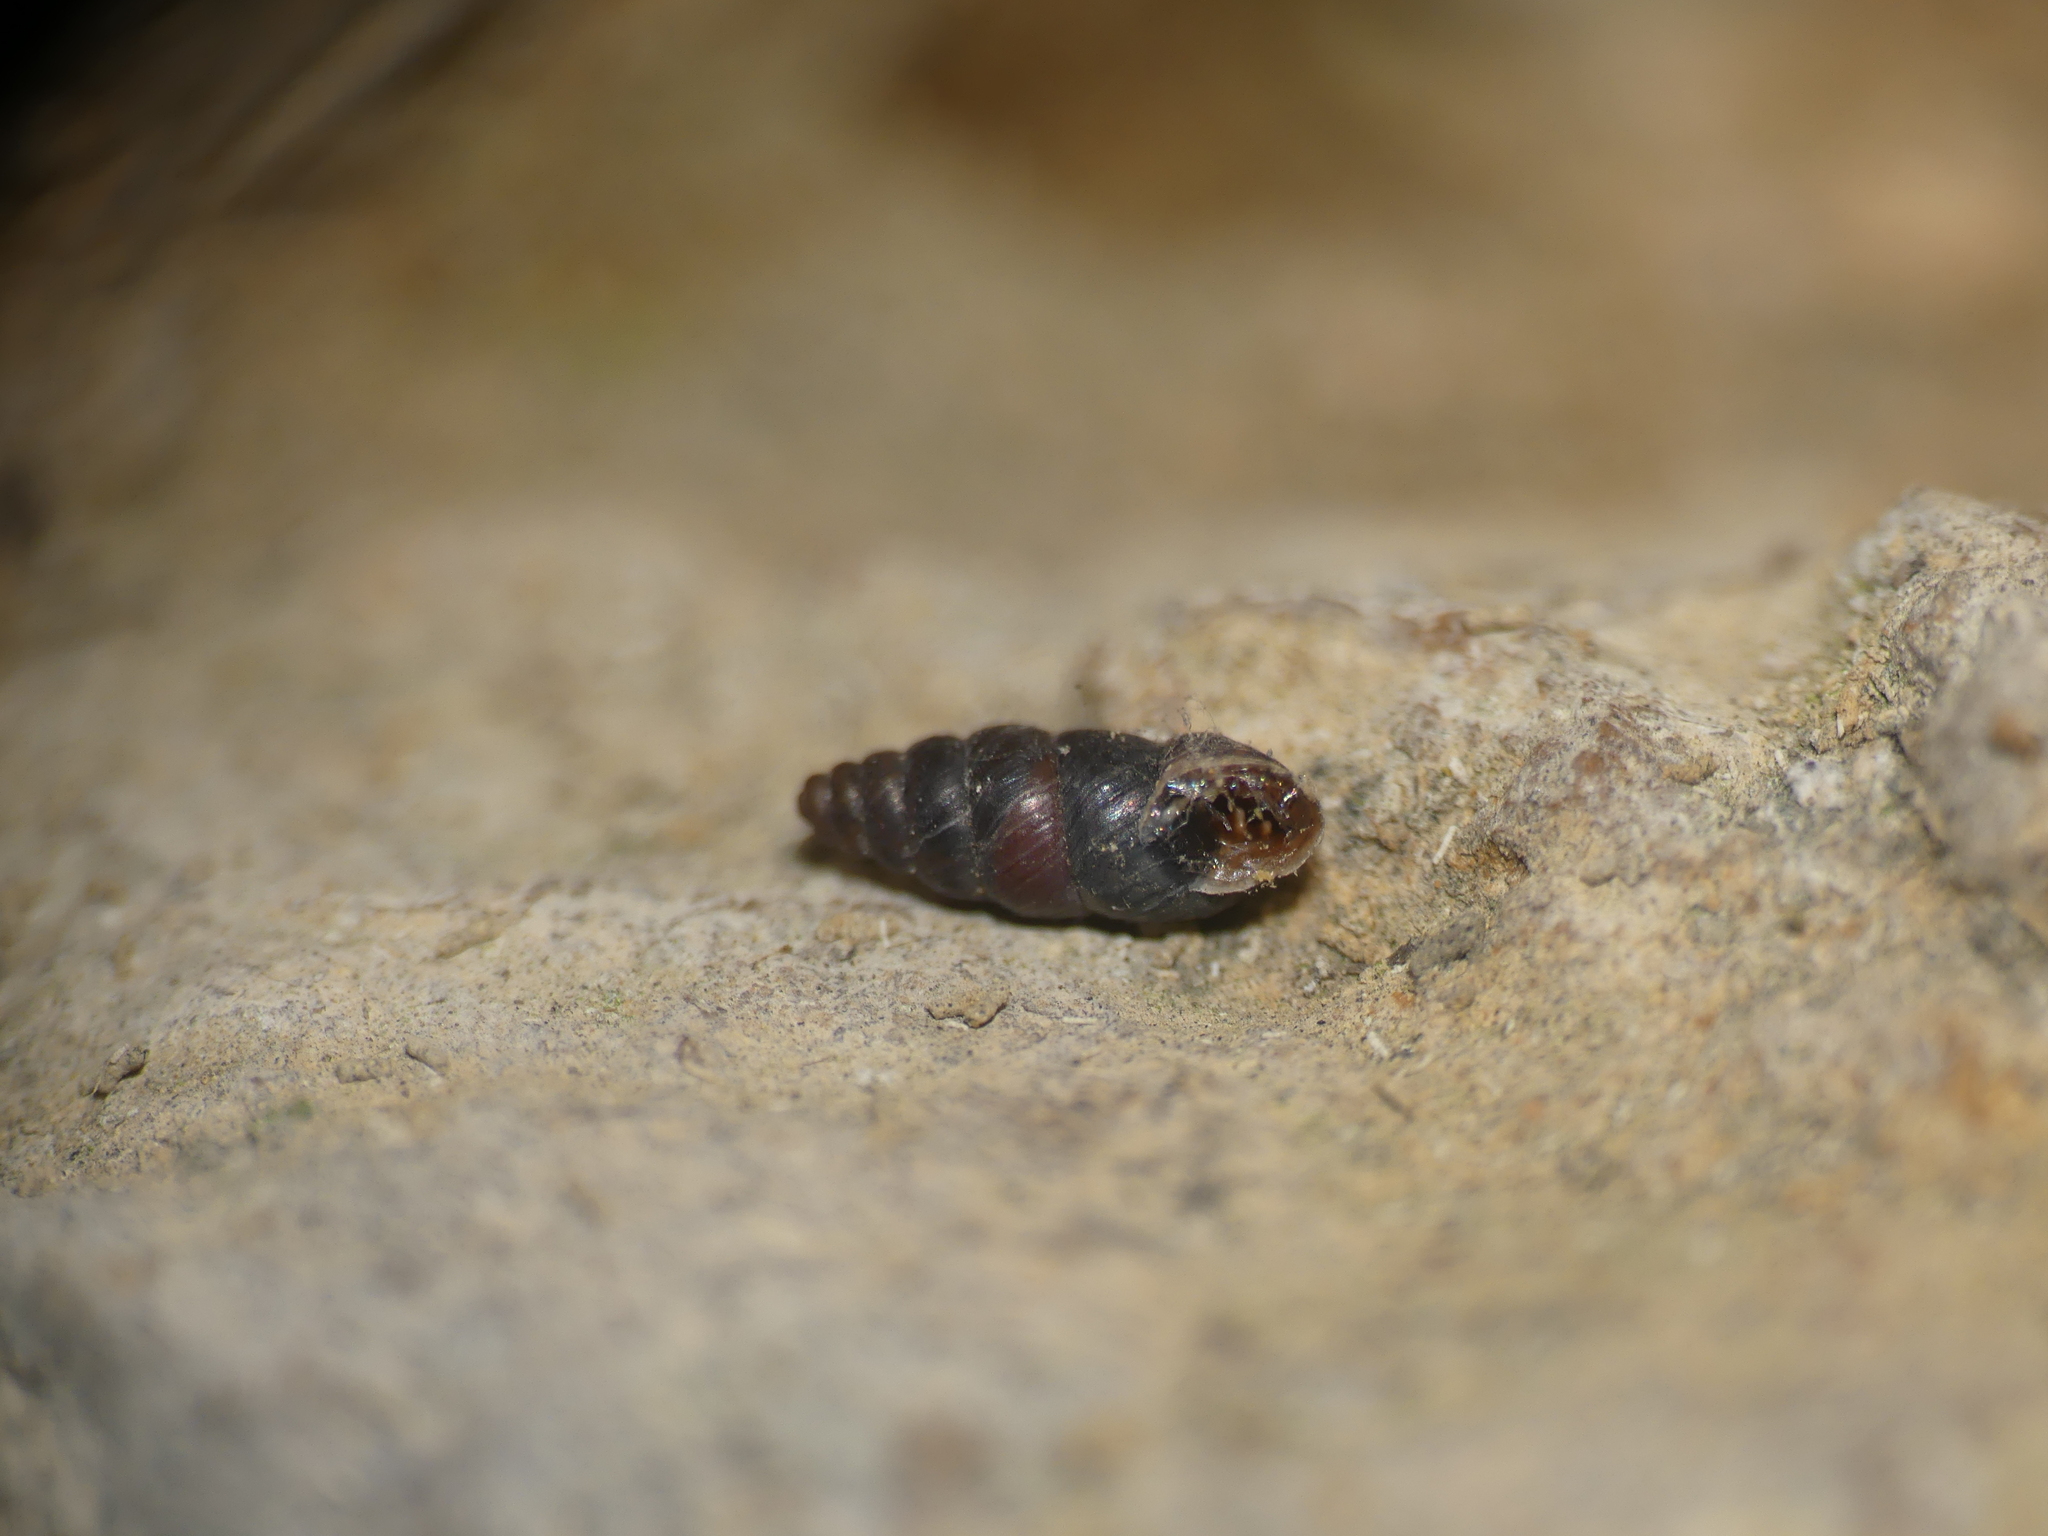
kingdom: Animalia
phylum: Mollusca
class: Gastropoda
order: Stylommatophora
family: Chondrinidae
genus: Chondrina
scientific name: Chondrina avenacea
